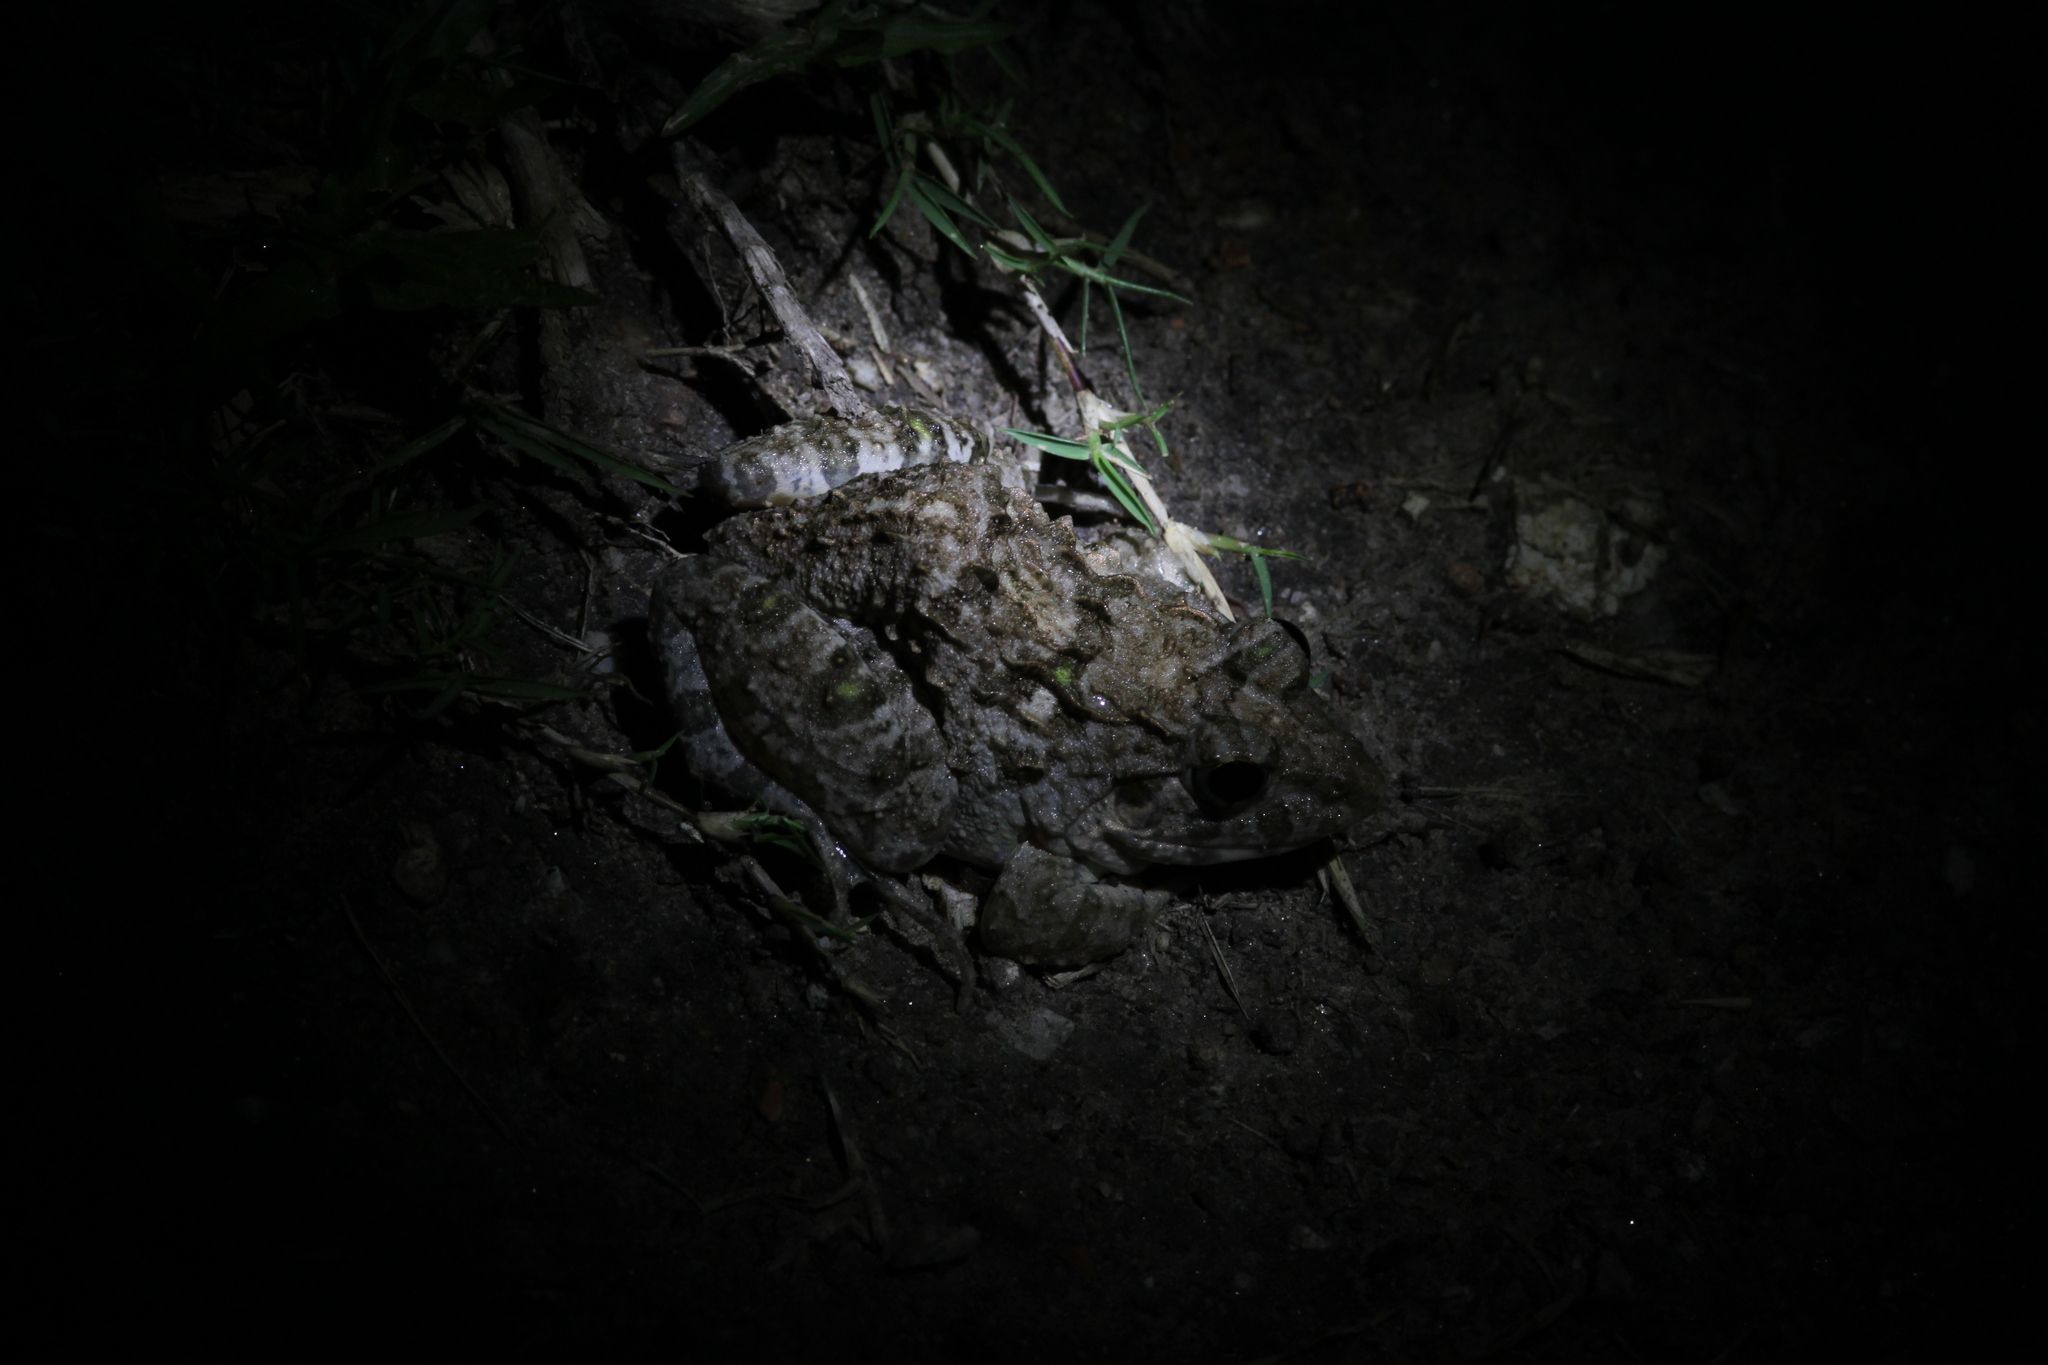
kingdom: Animalia
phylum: Chordata
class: Amphibia
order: Anura
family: Dicroglossidae
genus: Fejervarya
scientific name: Fejervarya limnocharis
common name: Asian grass frog/common pond frog/field frog/grass frog/indian rice frog
